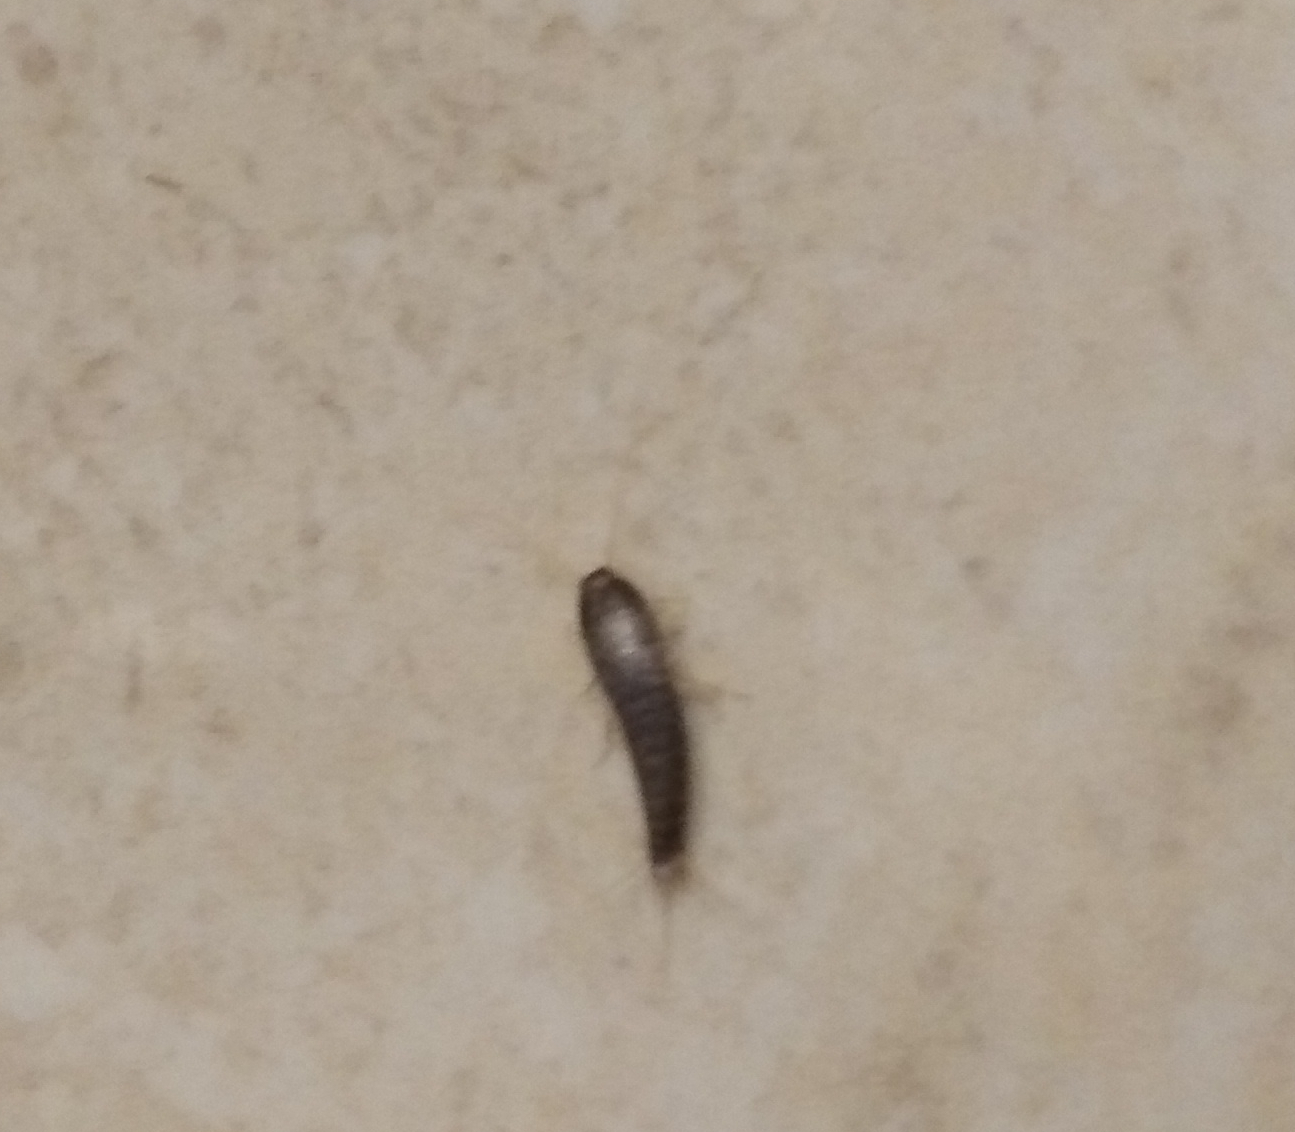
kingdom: Animalia
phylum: Arthropoda
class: Insecta
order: Zygentoma
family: Lepismatidae
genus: Lepisma
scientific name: Lepisma saccharinum
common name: Silverfish
